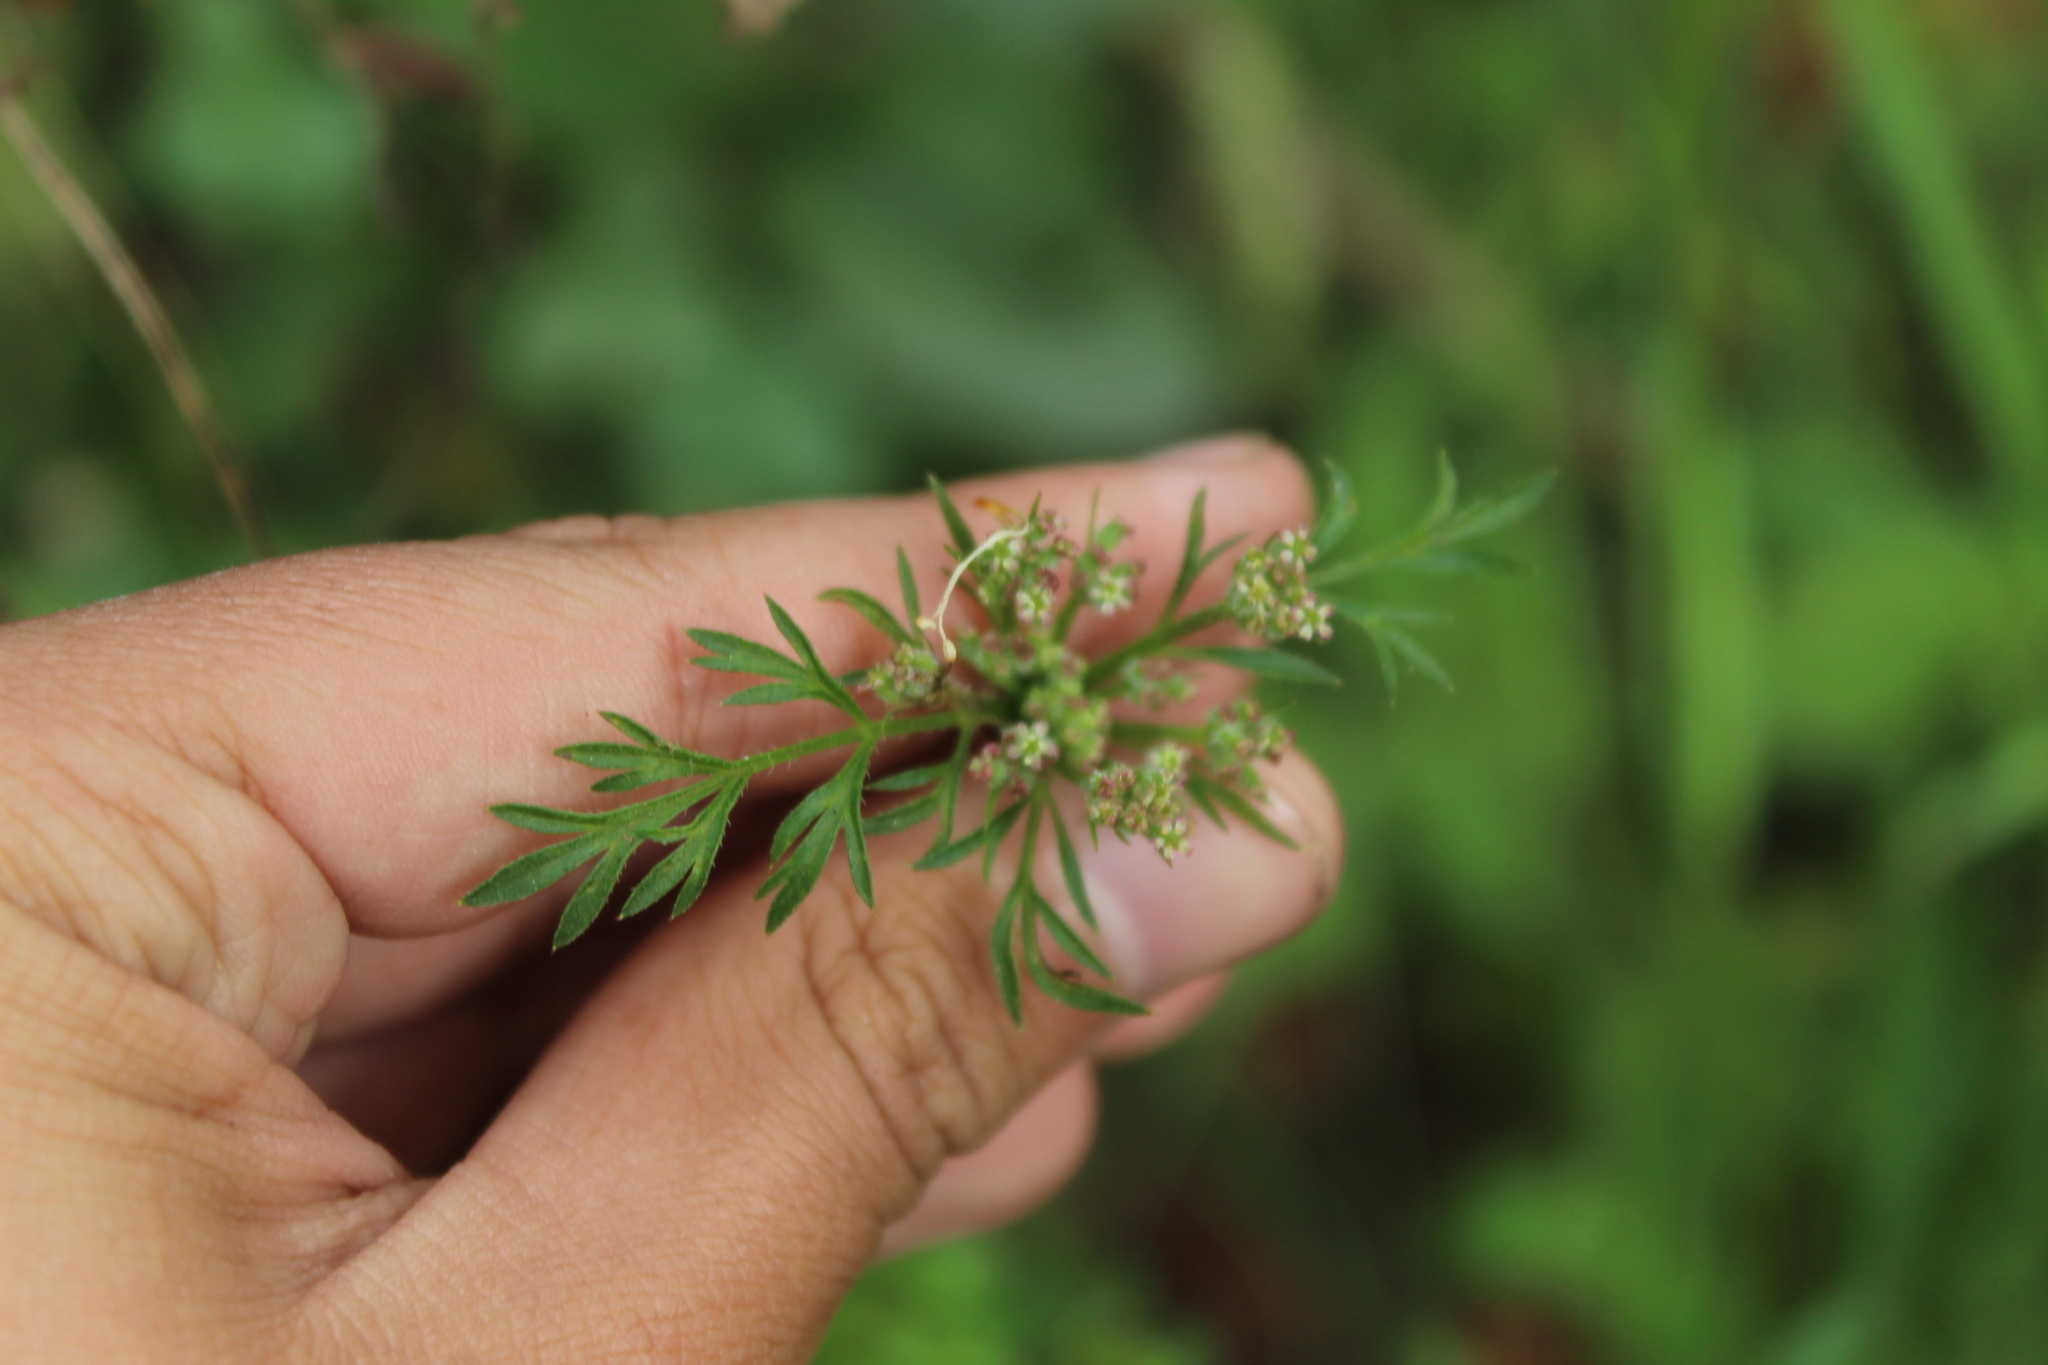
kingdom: Plantae
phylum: Tracheophyta
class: Magnoliopsida
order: Apiales
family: Apiaceae
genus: Daucus
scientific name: Daucus montanus
